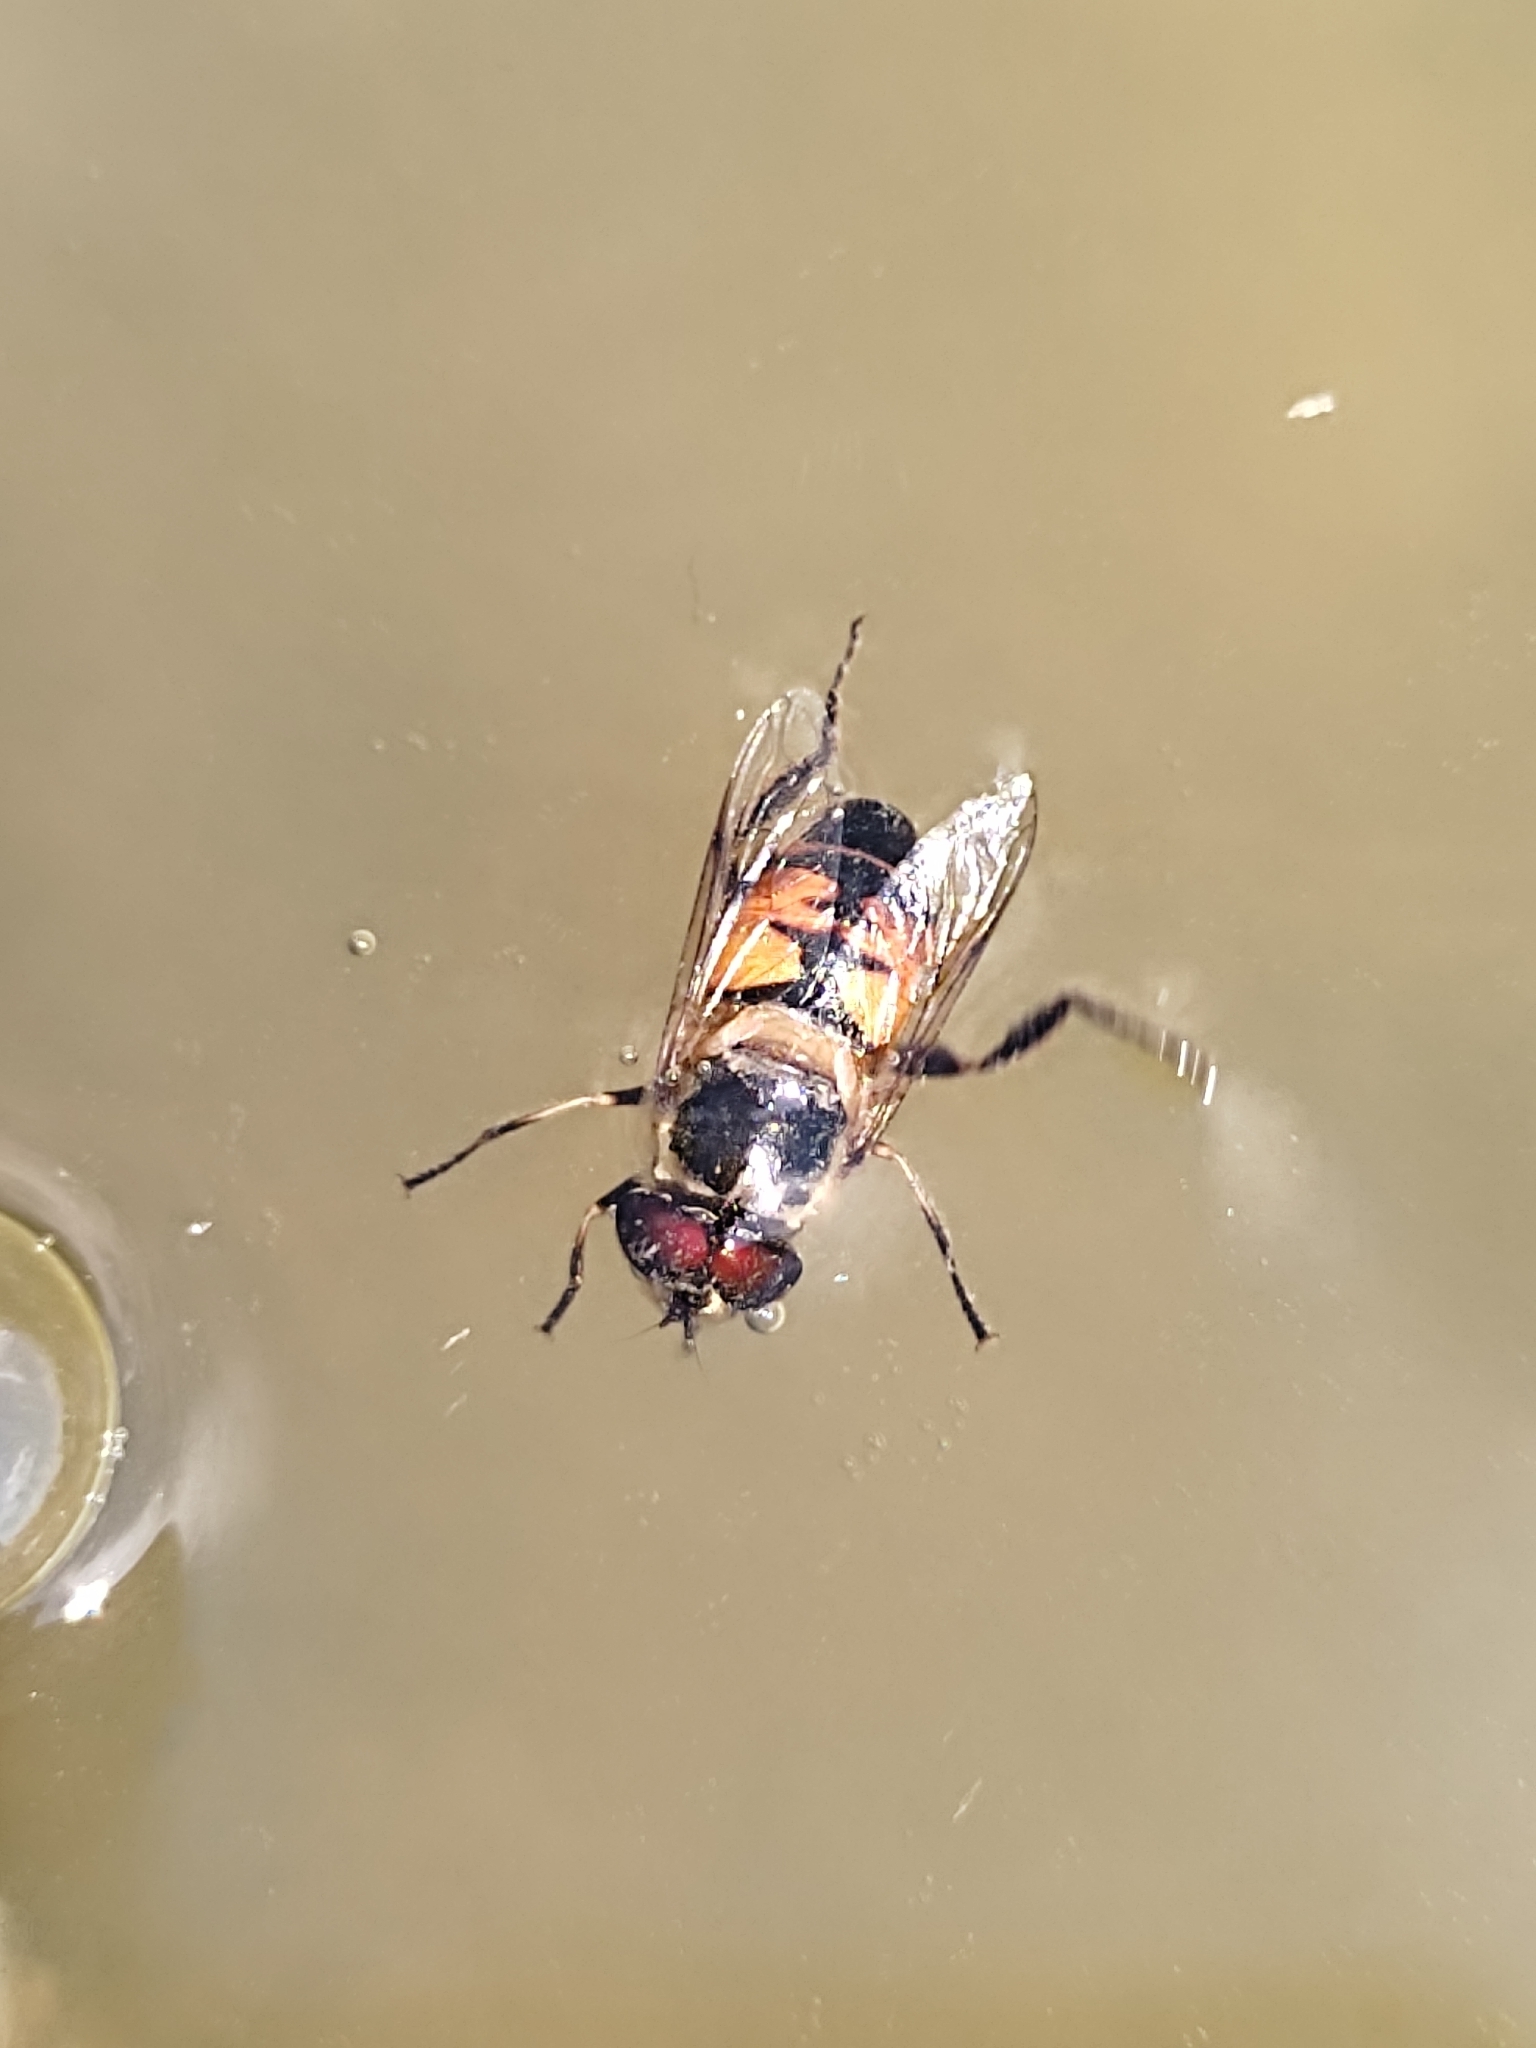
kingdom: Animalia
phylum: Arthropoda
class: Insecta
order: Diptera
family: Syrphidae
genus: Eristalis
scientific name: Eristalis tenax
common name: Drone fly
